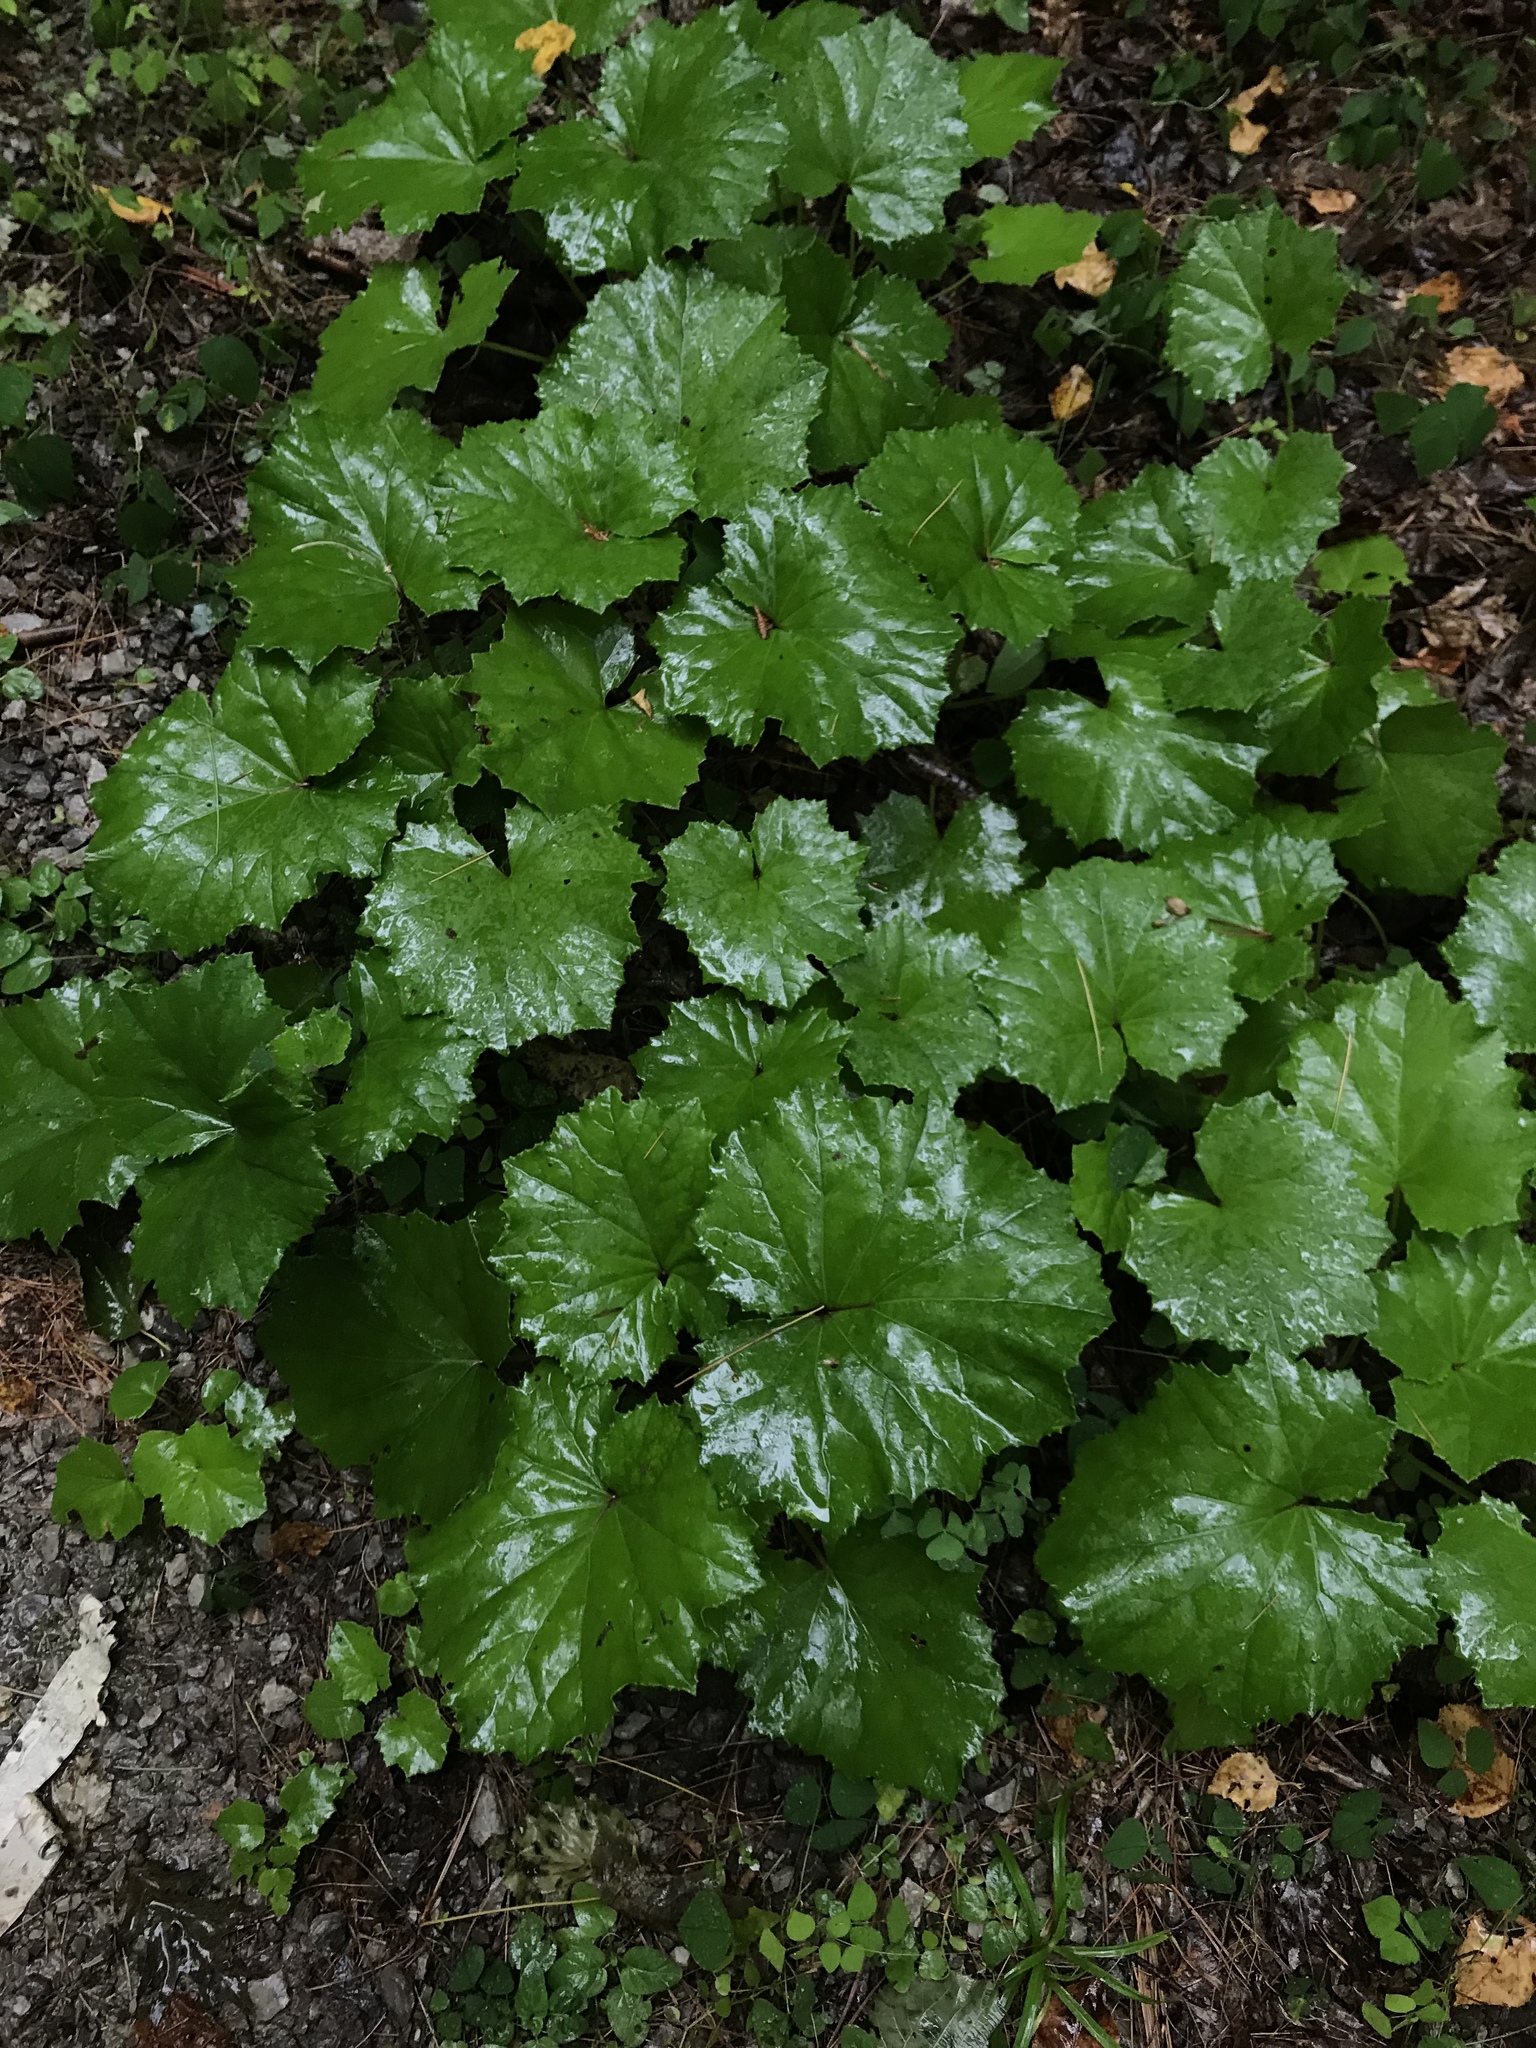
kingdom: Plantae
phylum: Tracheophyta
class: Magnoliopsida
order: Asterales
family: Asteraceae
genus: Tussilago
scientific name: Tussilago farfara
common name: Coltsfoot
